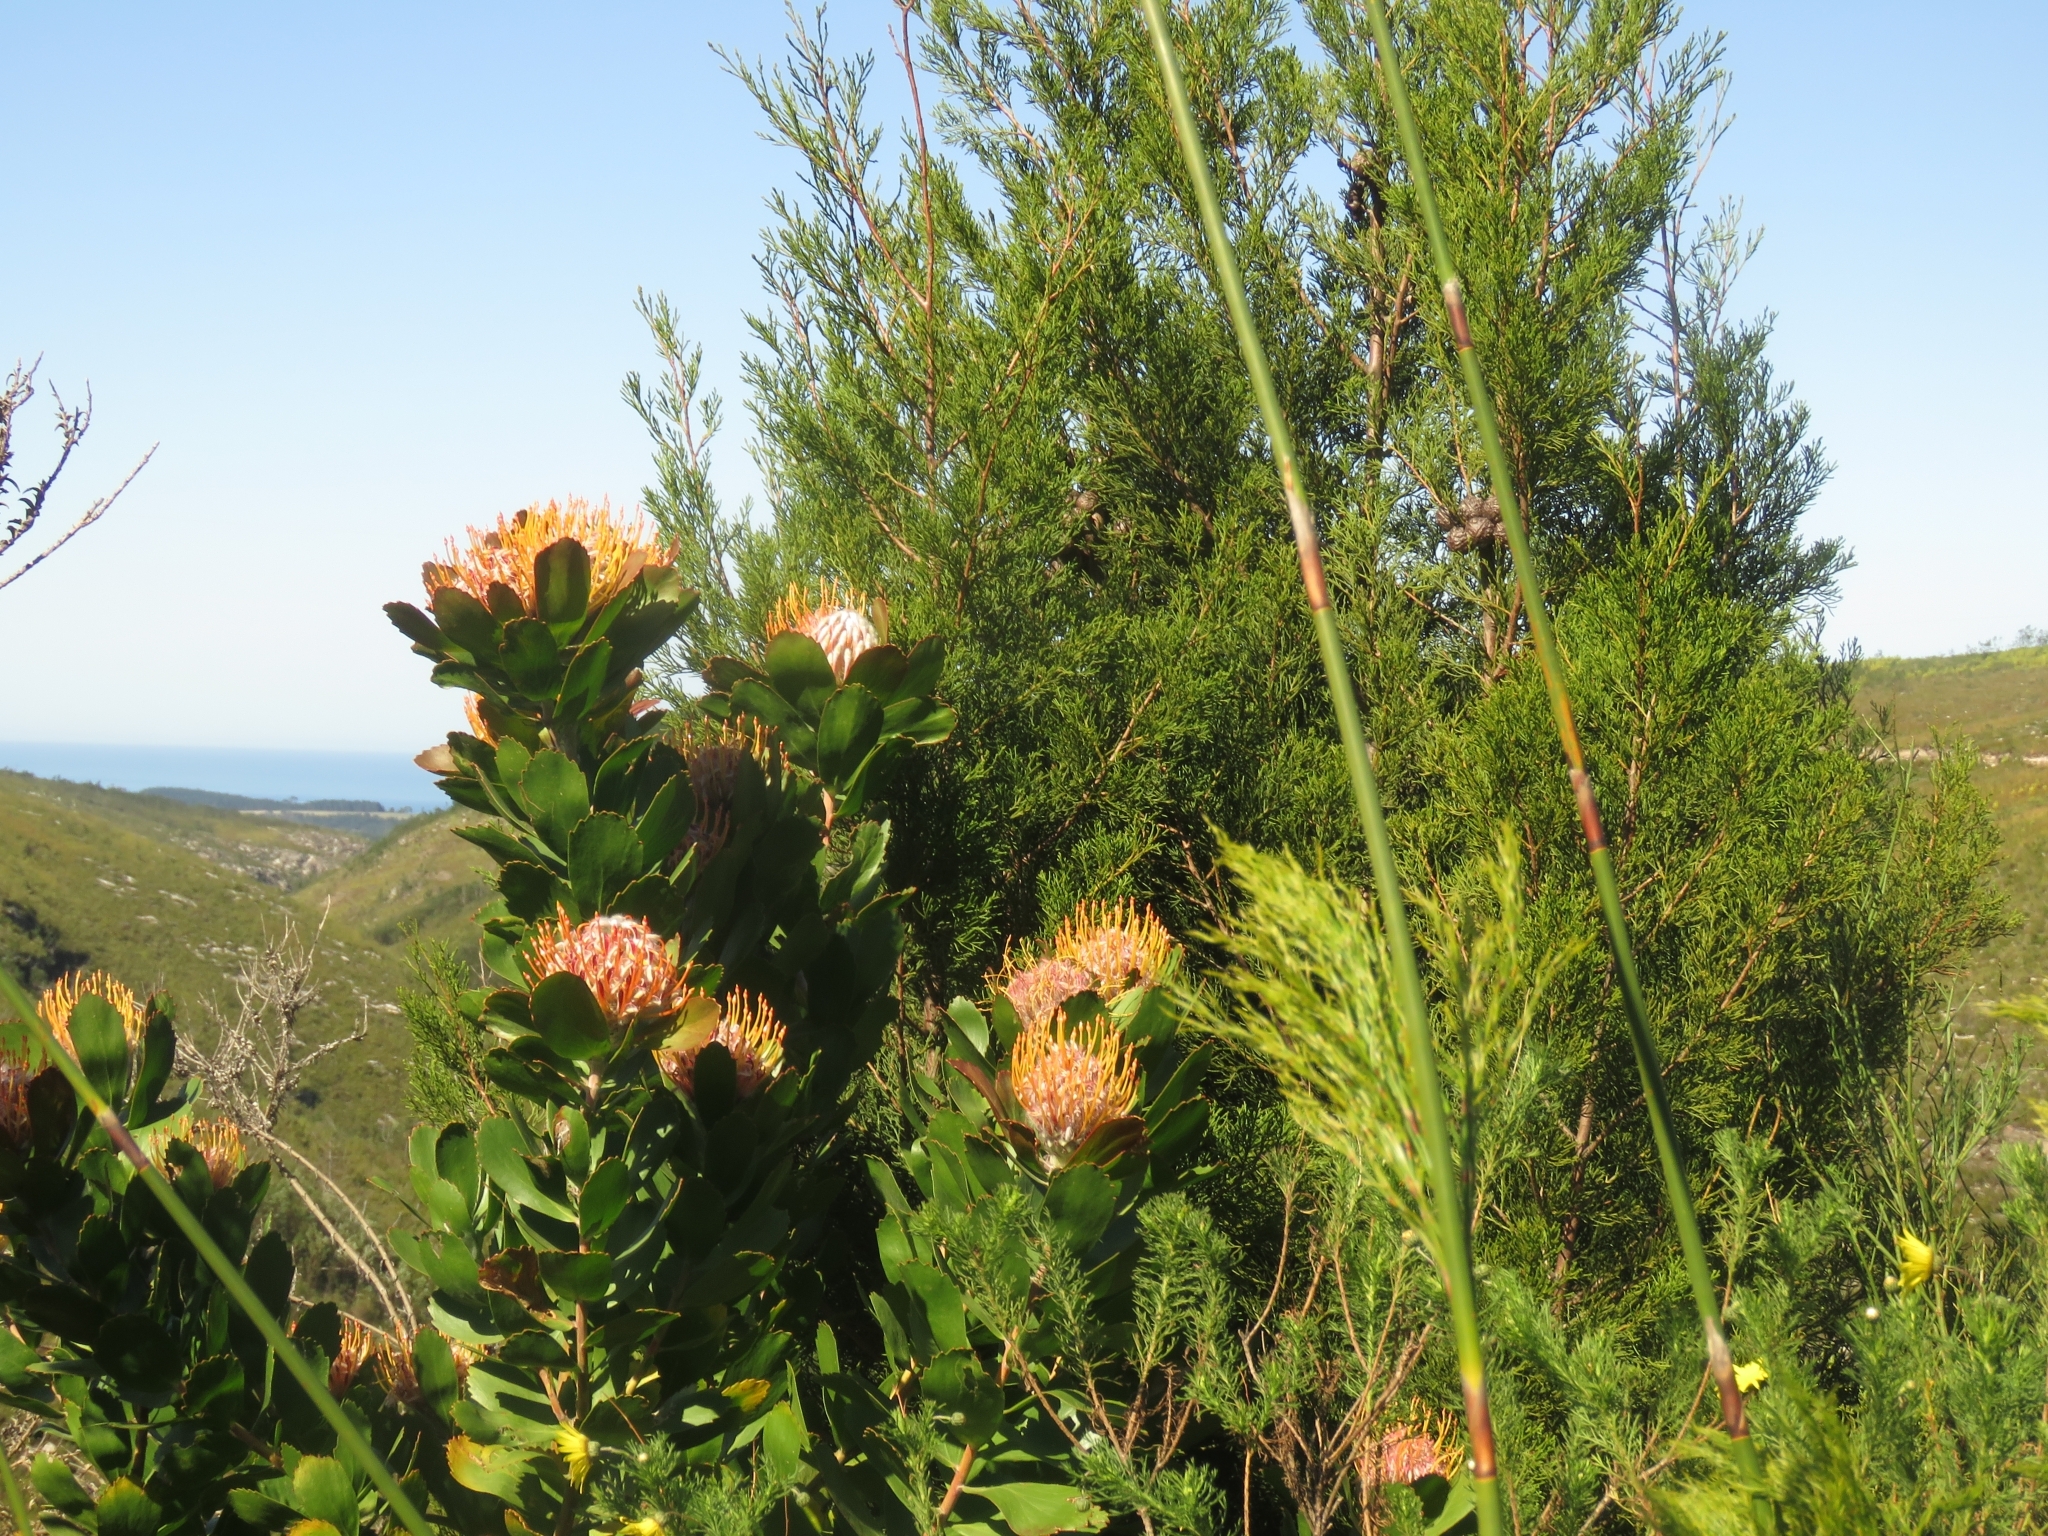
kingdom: Plantae
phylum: Tracheophyta
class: Magnoliopsida
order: Proteales
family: Proteaceae
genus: Leucospermum
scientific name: Leucospermum glabrum
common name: Outeniqua pincushion
